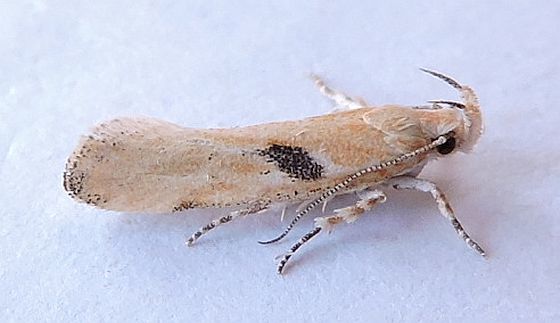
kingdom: Animalia
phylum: Arthropoda
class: Insecta
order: Lepidoptera
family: Gelechiidae
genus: Filatima
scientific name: Filatima depuratella
